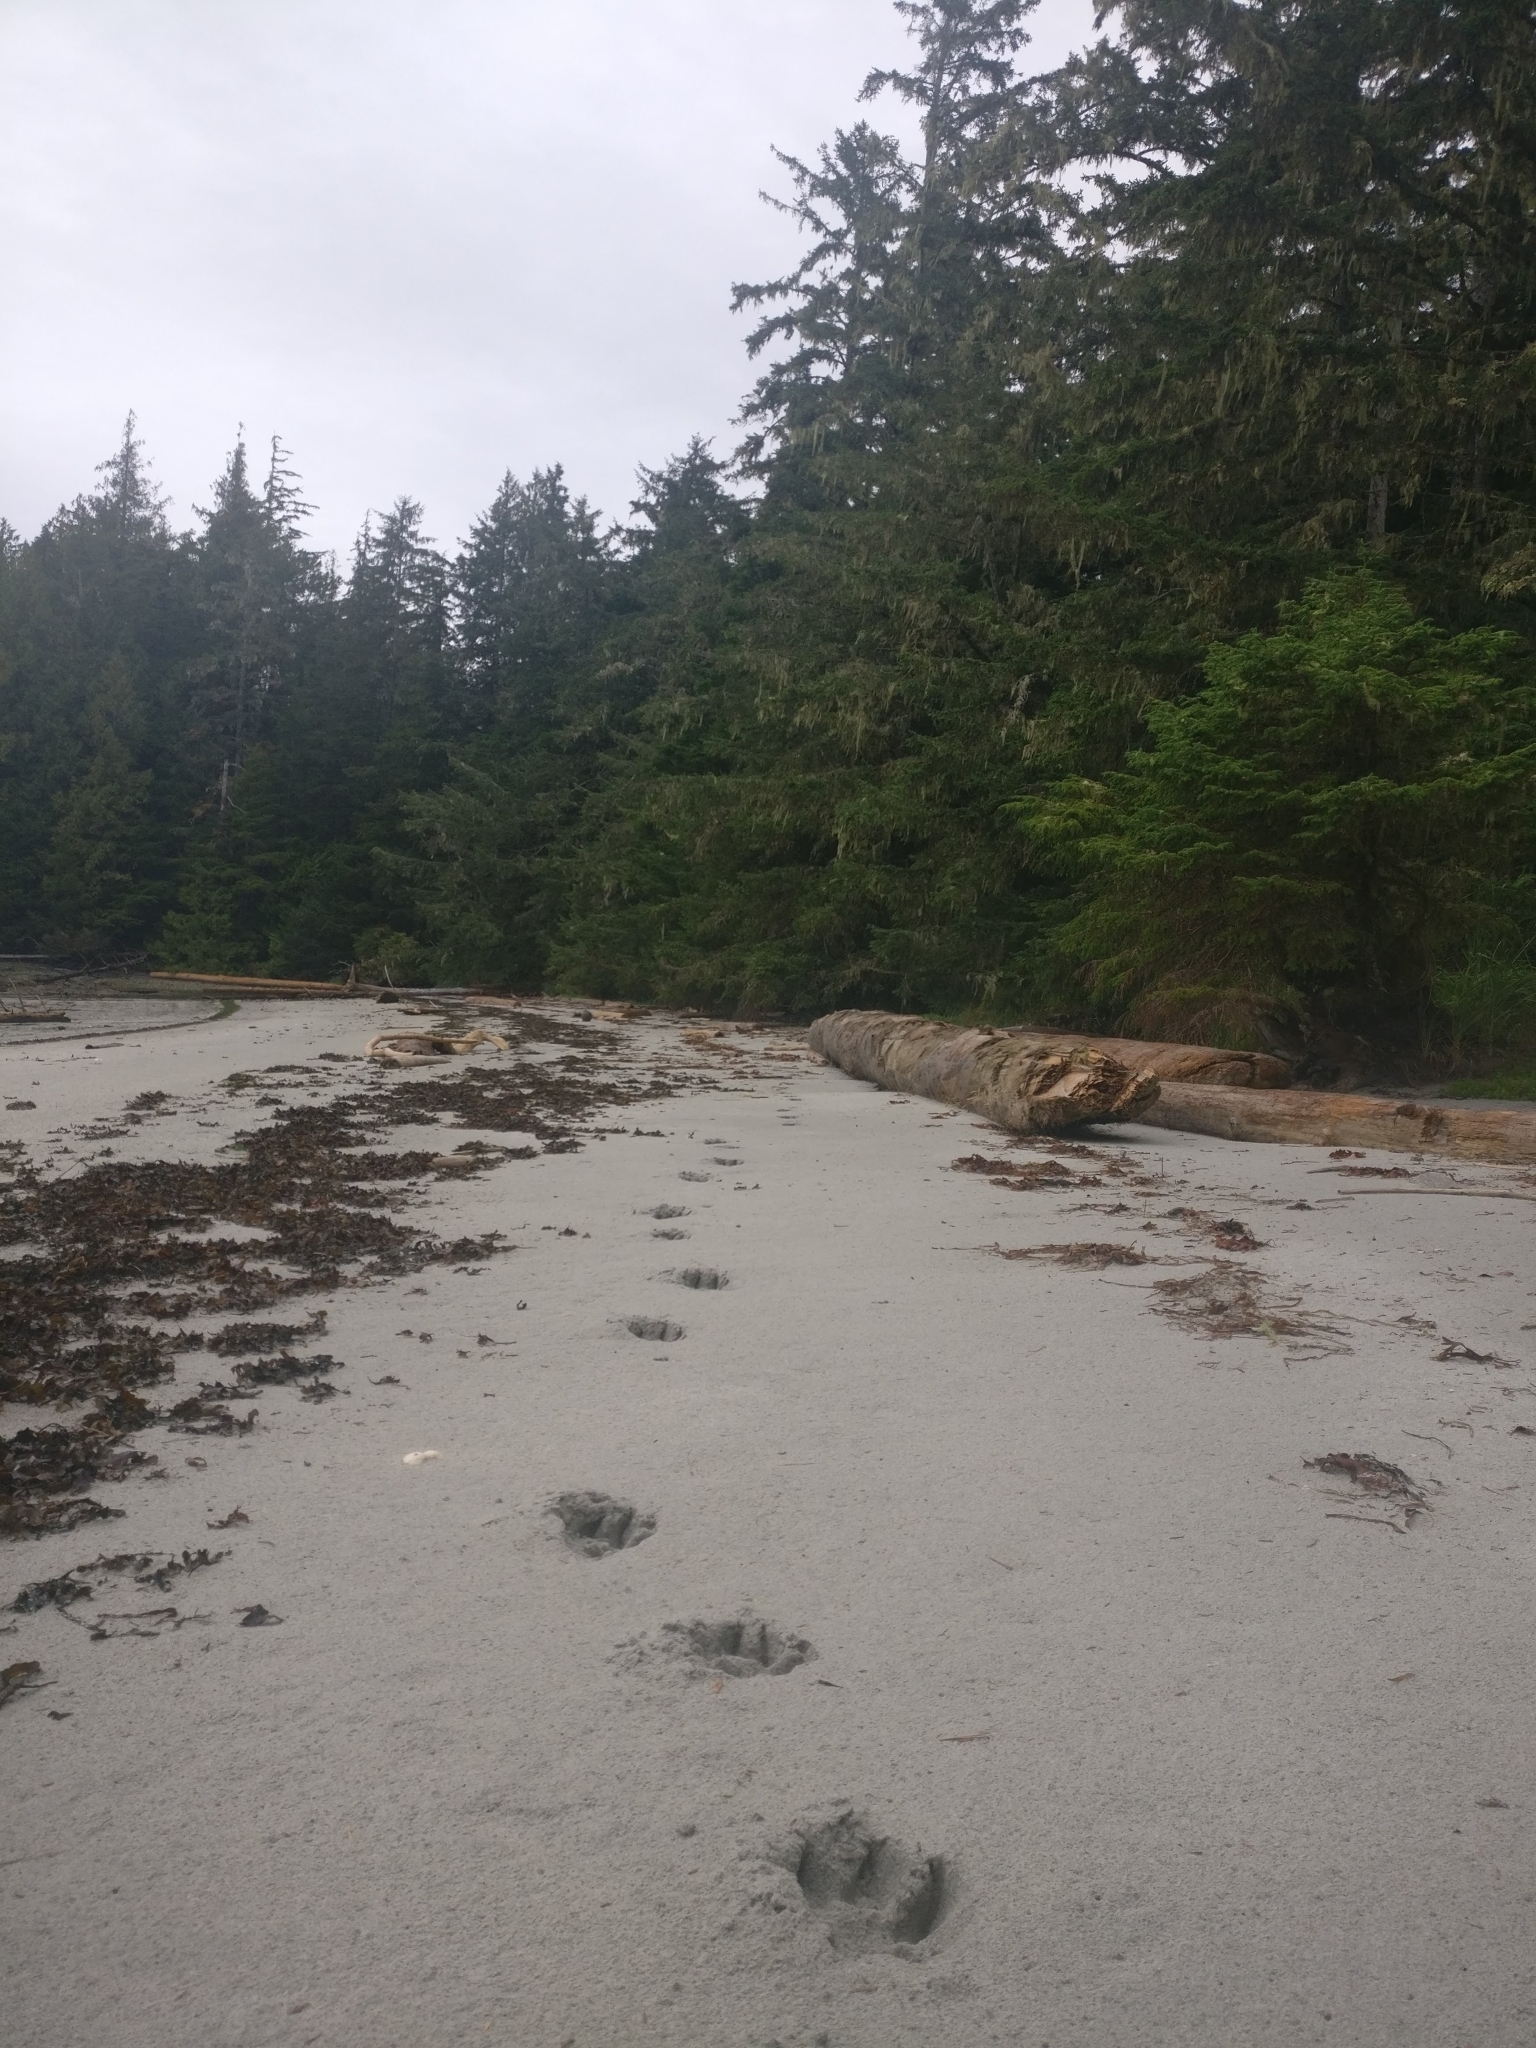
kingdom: Animalia
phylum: Chordata
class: Mammalia
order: Carnivora
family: Canidae
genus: Canis
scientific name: Canis lupus
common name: Gray wolf
